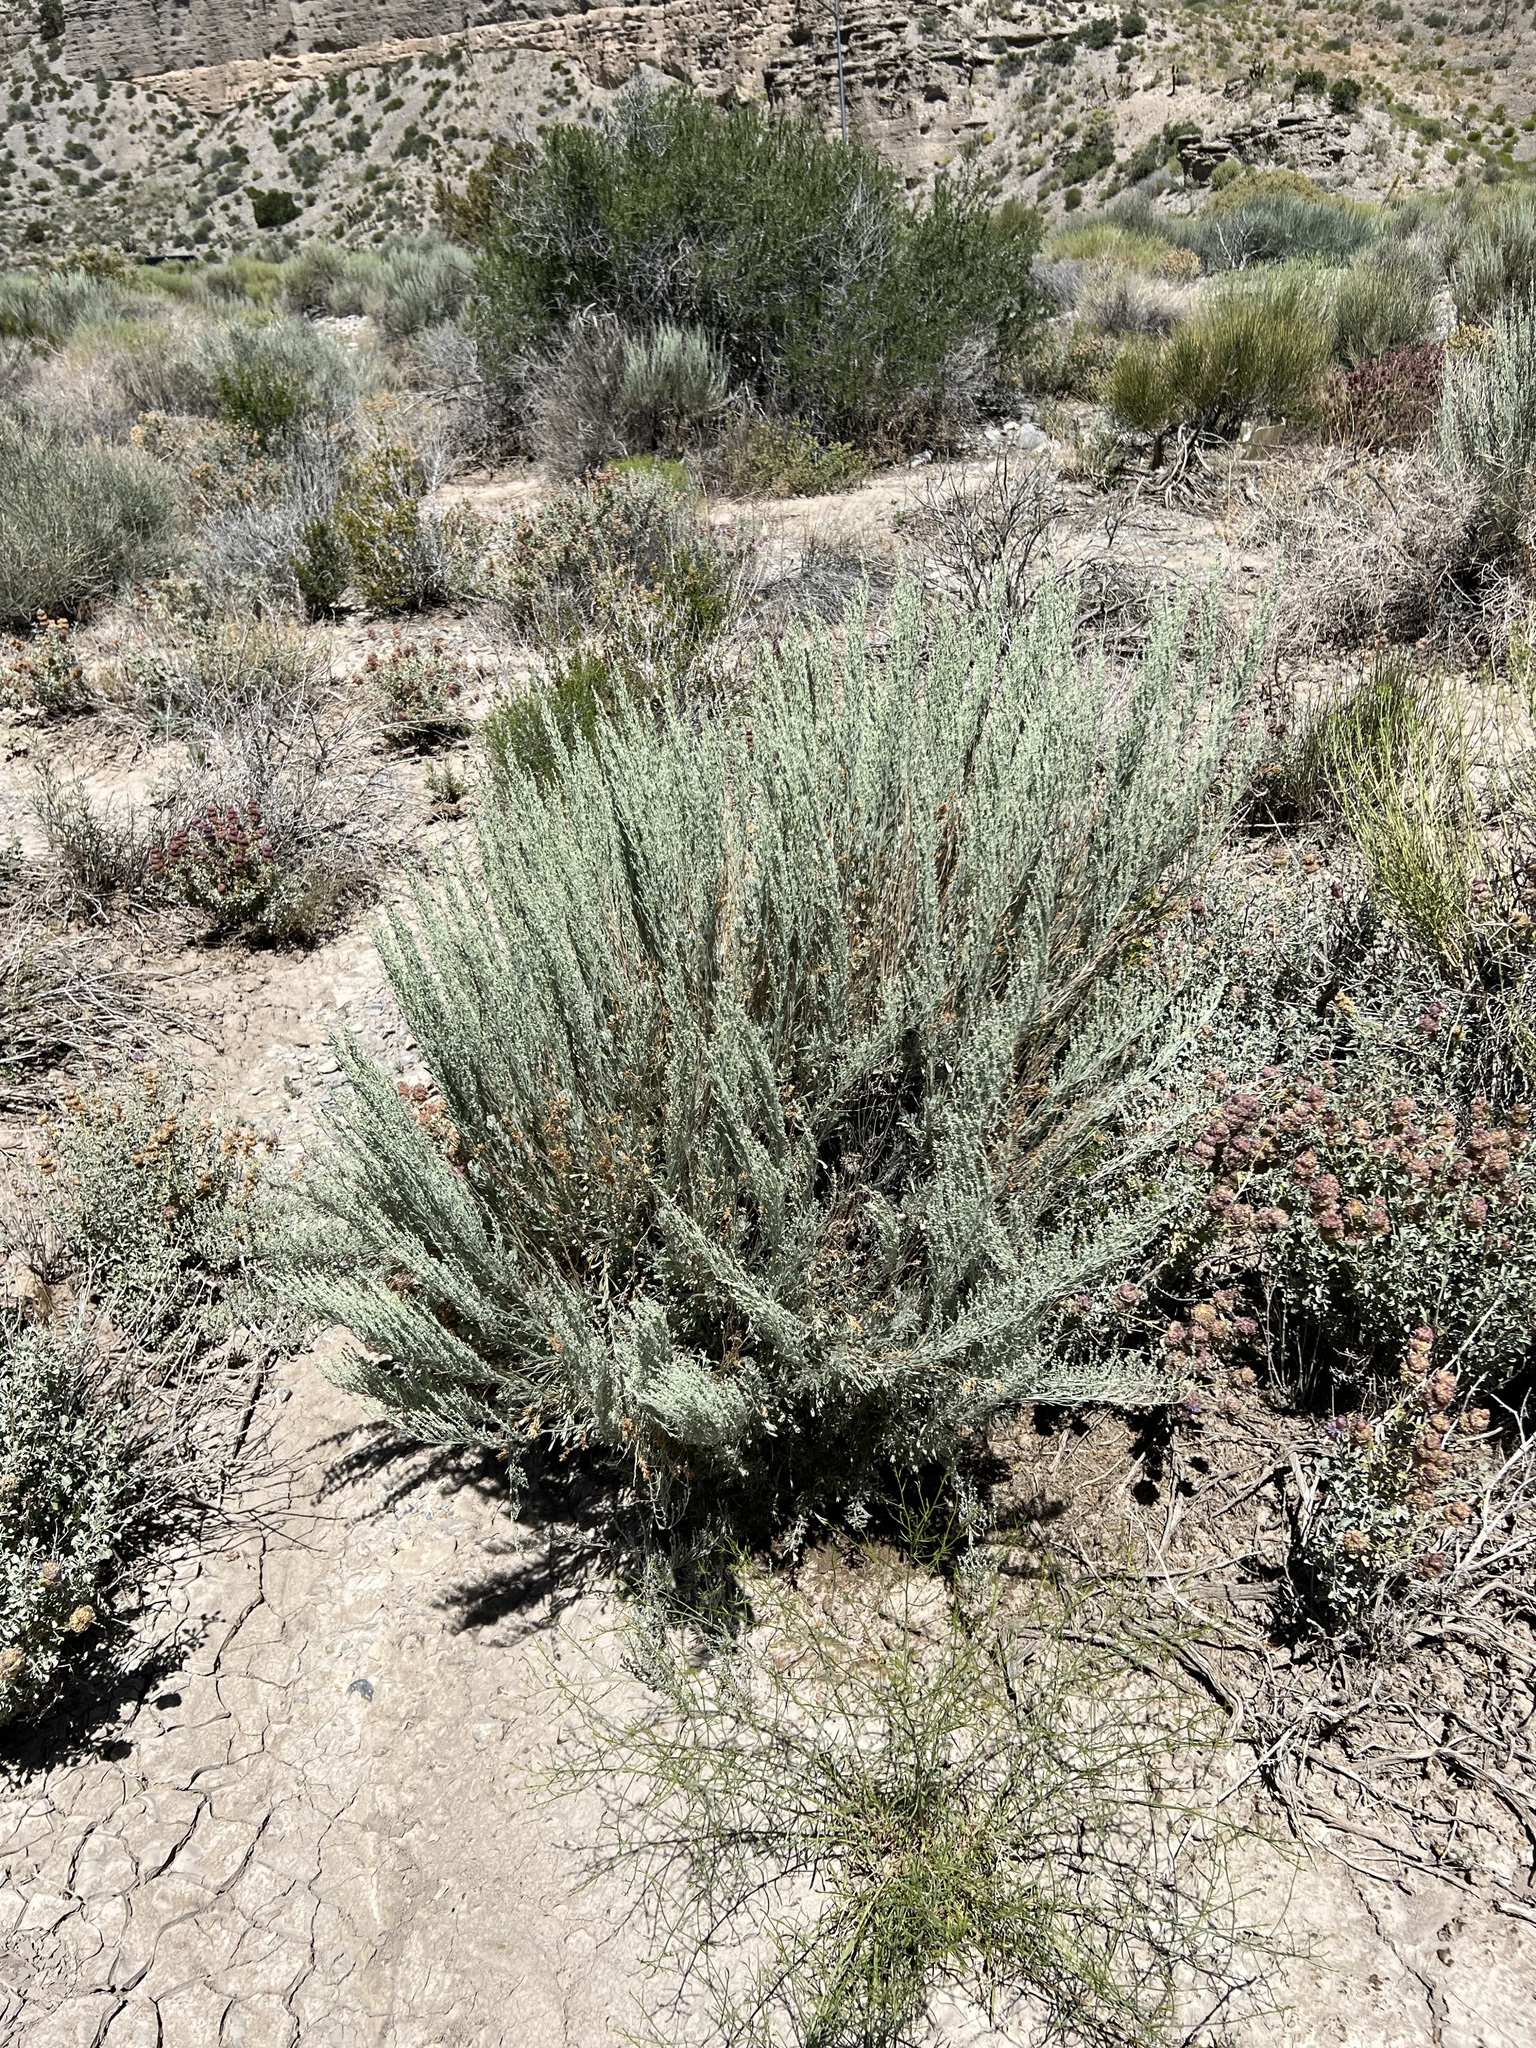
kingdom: Plantae
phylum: Tracheophyta
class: Magnoliopsida
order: Asterales
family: Asteraceae
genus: Artemisia
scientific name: Artemisia tridentata
